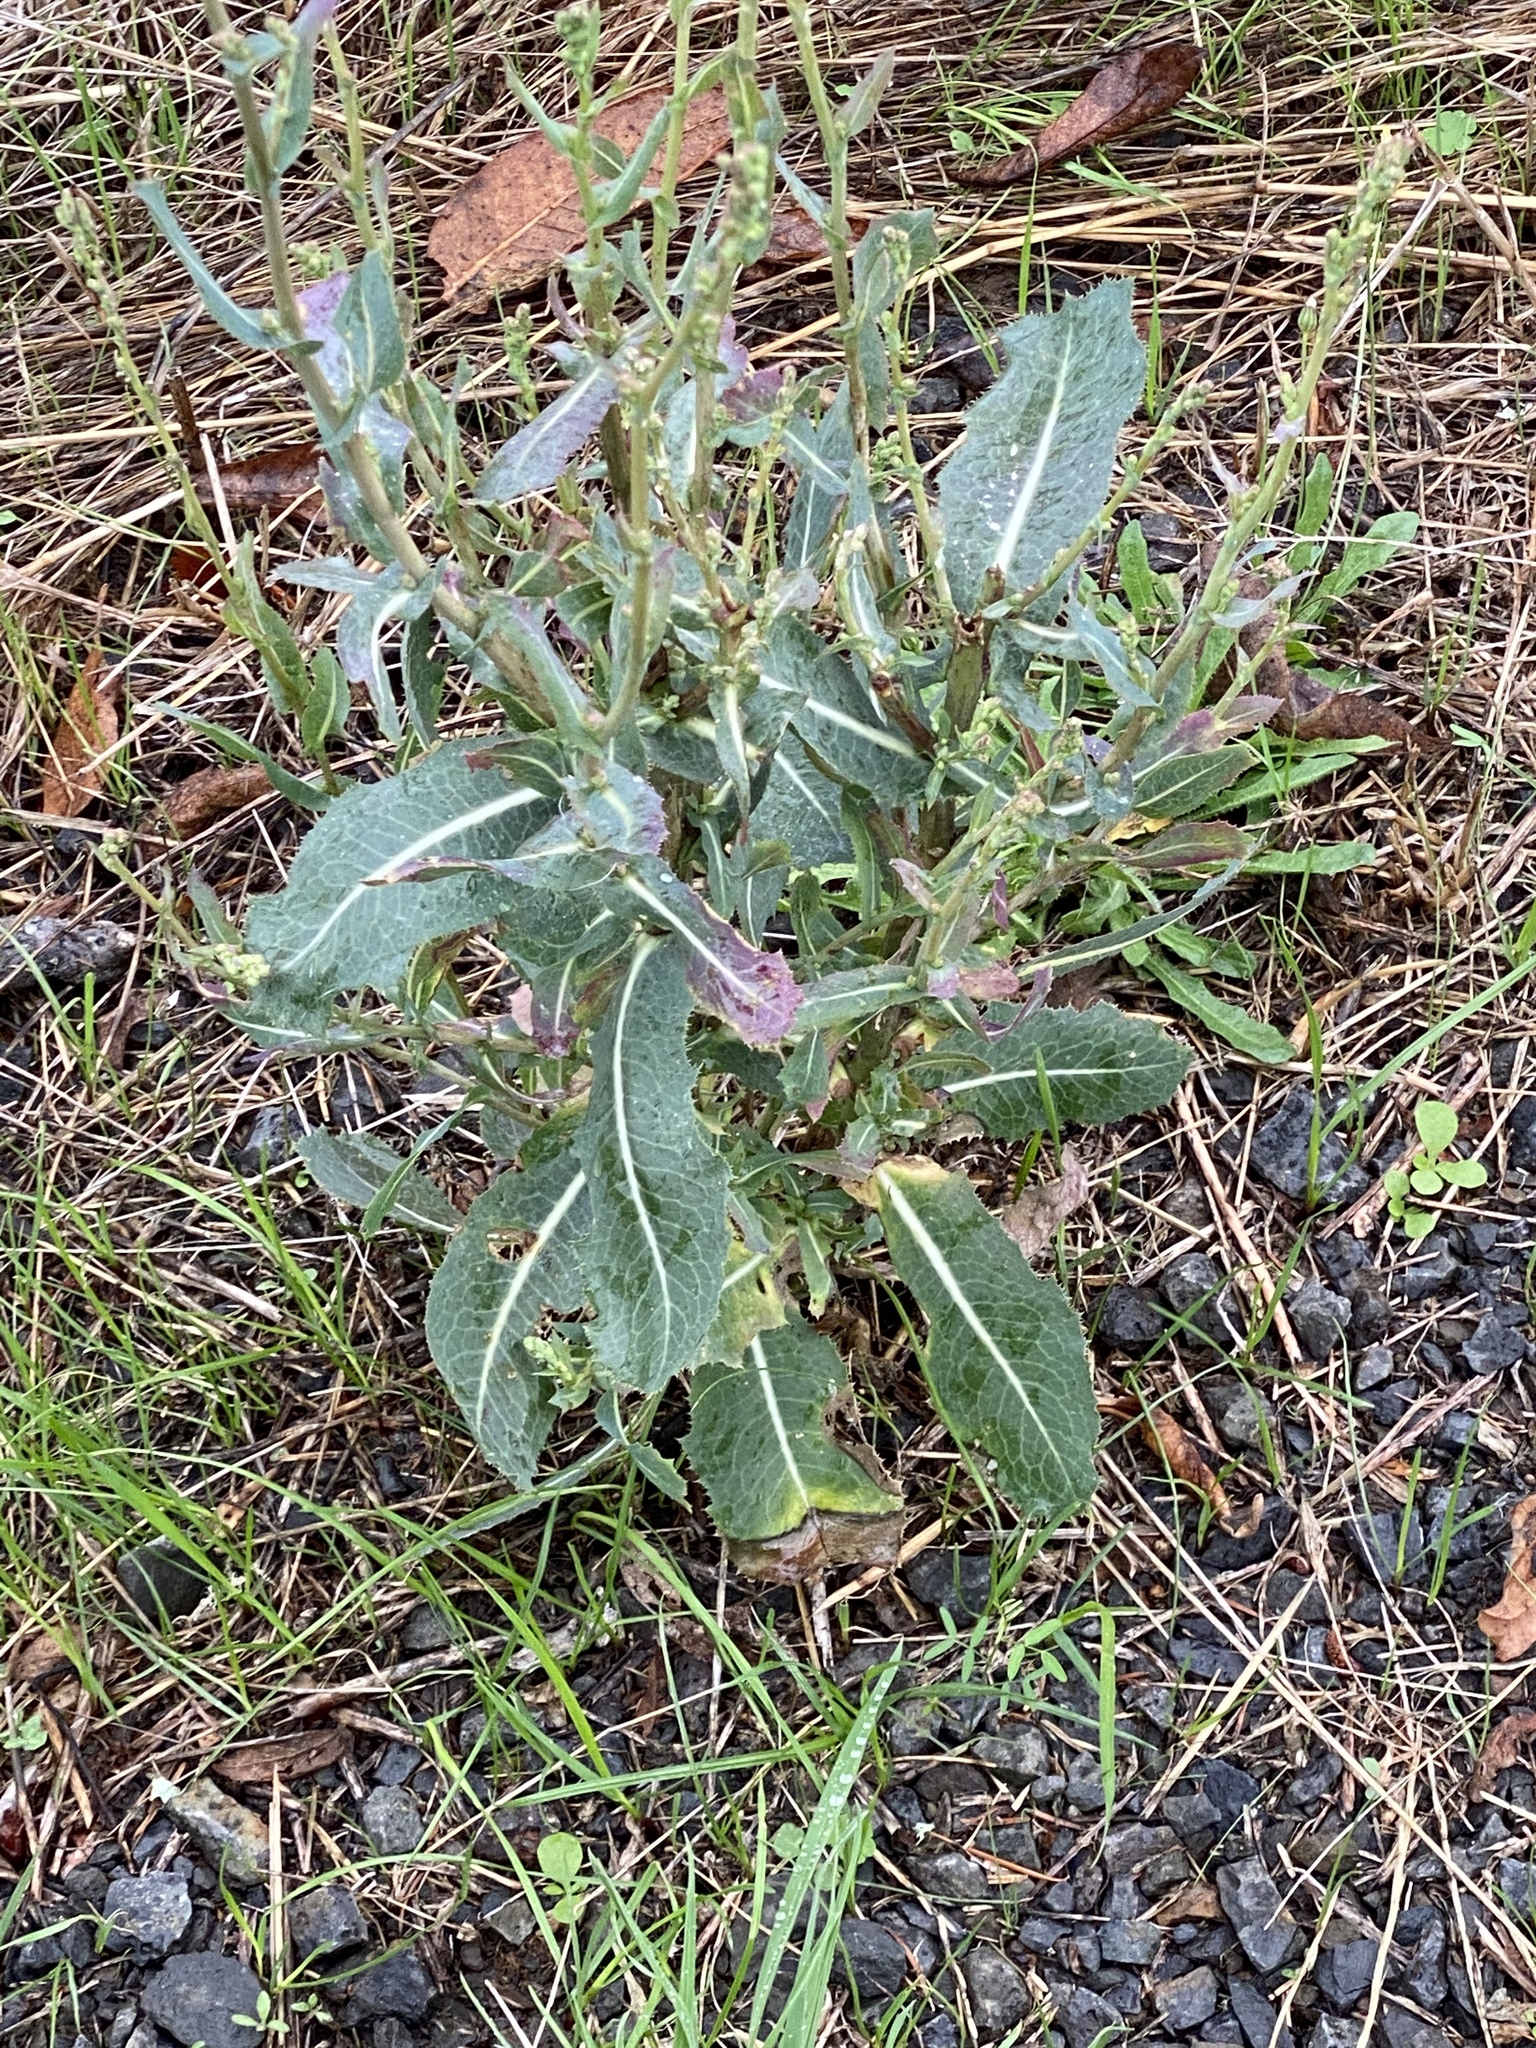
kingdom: Plantae
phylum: Tracheophyta
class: Magnoliopsida
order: Asterales
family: Asteraceae
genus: Lactuca
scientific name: Lactuca serriola
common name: Prickly lettuce
